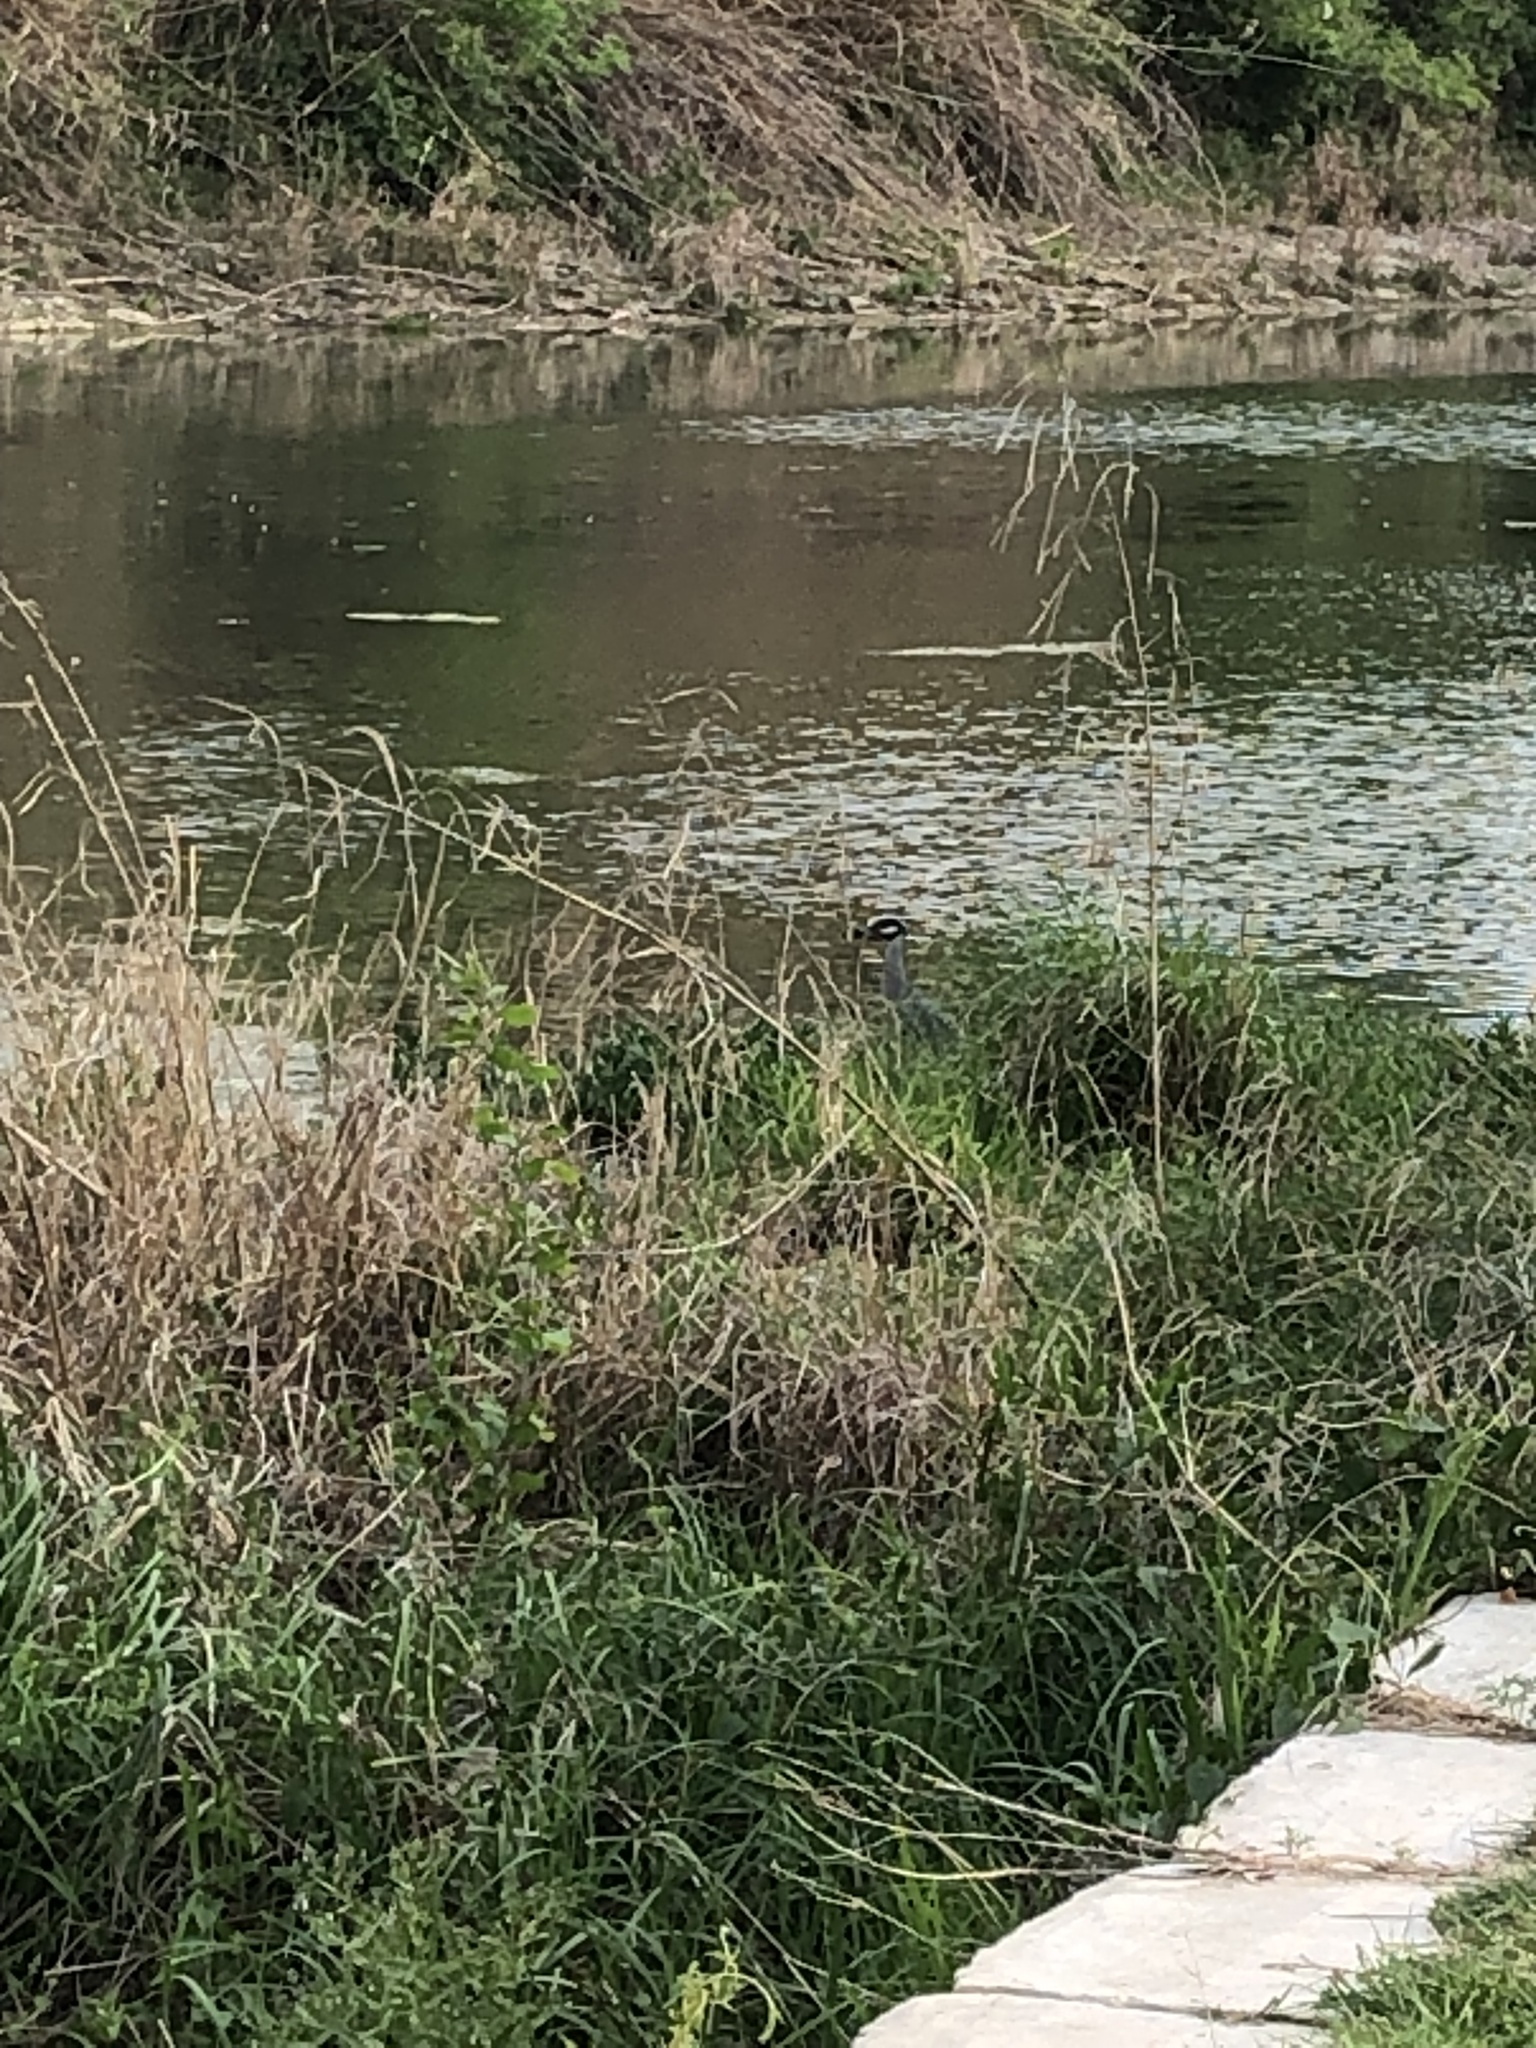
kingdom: Animalia
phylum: Chordata
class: Aves
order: Pelecaniformes
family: Ardeidae
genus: Nyctanassa
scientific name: Nyctanassa violacea
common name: Yellow-crowned night heron
